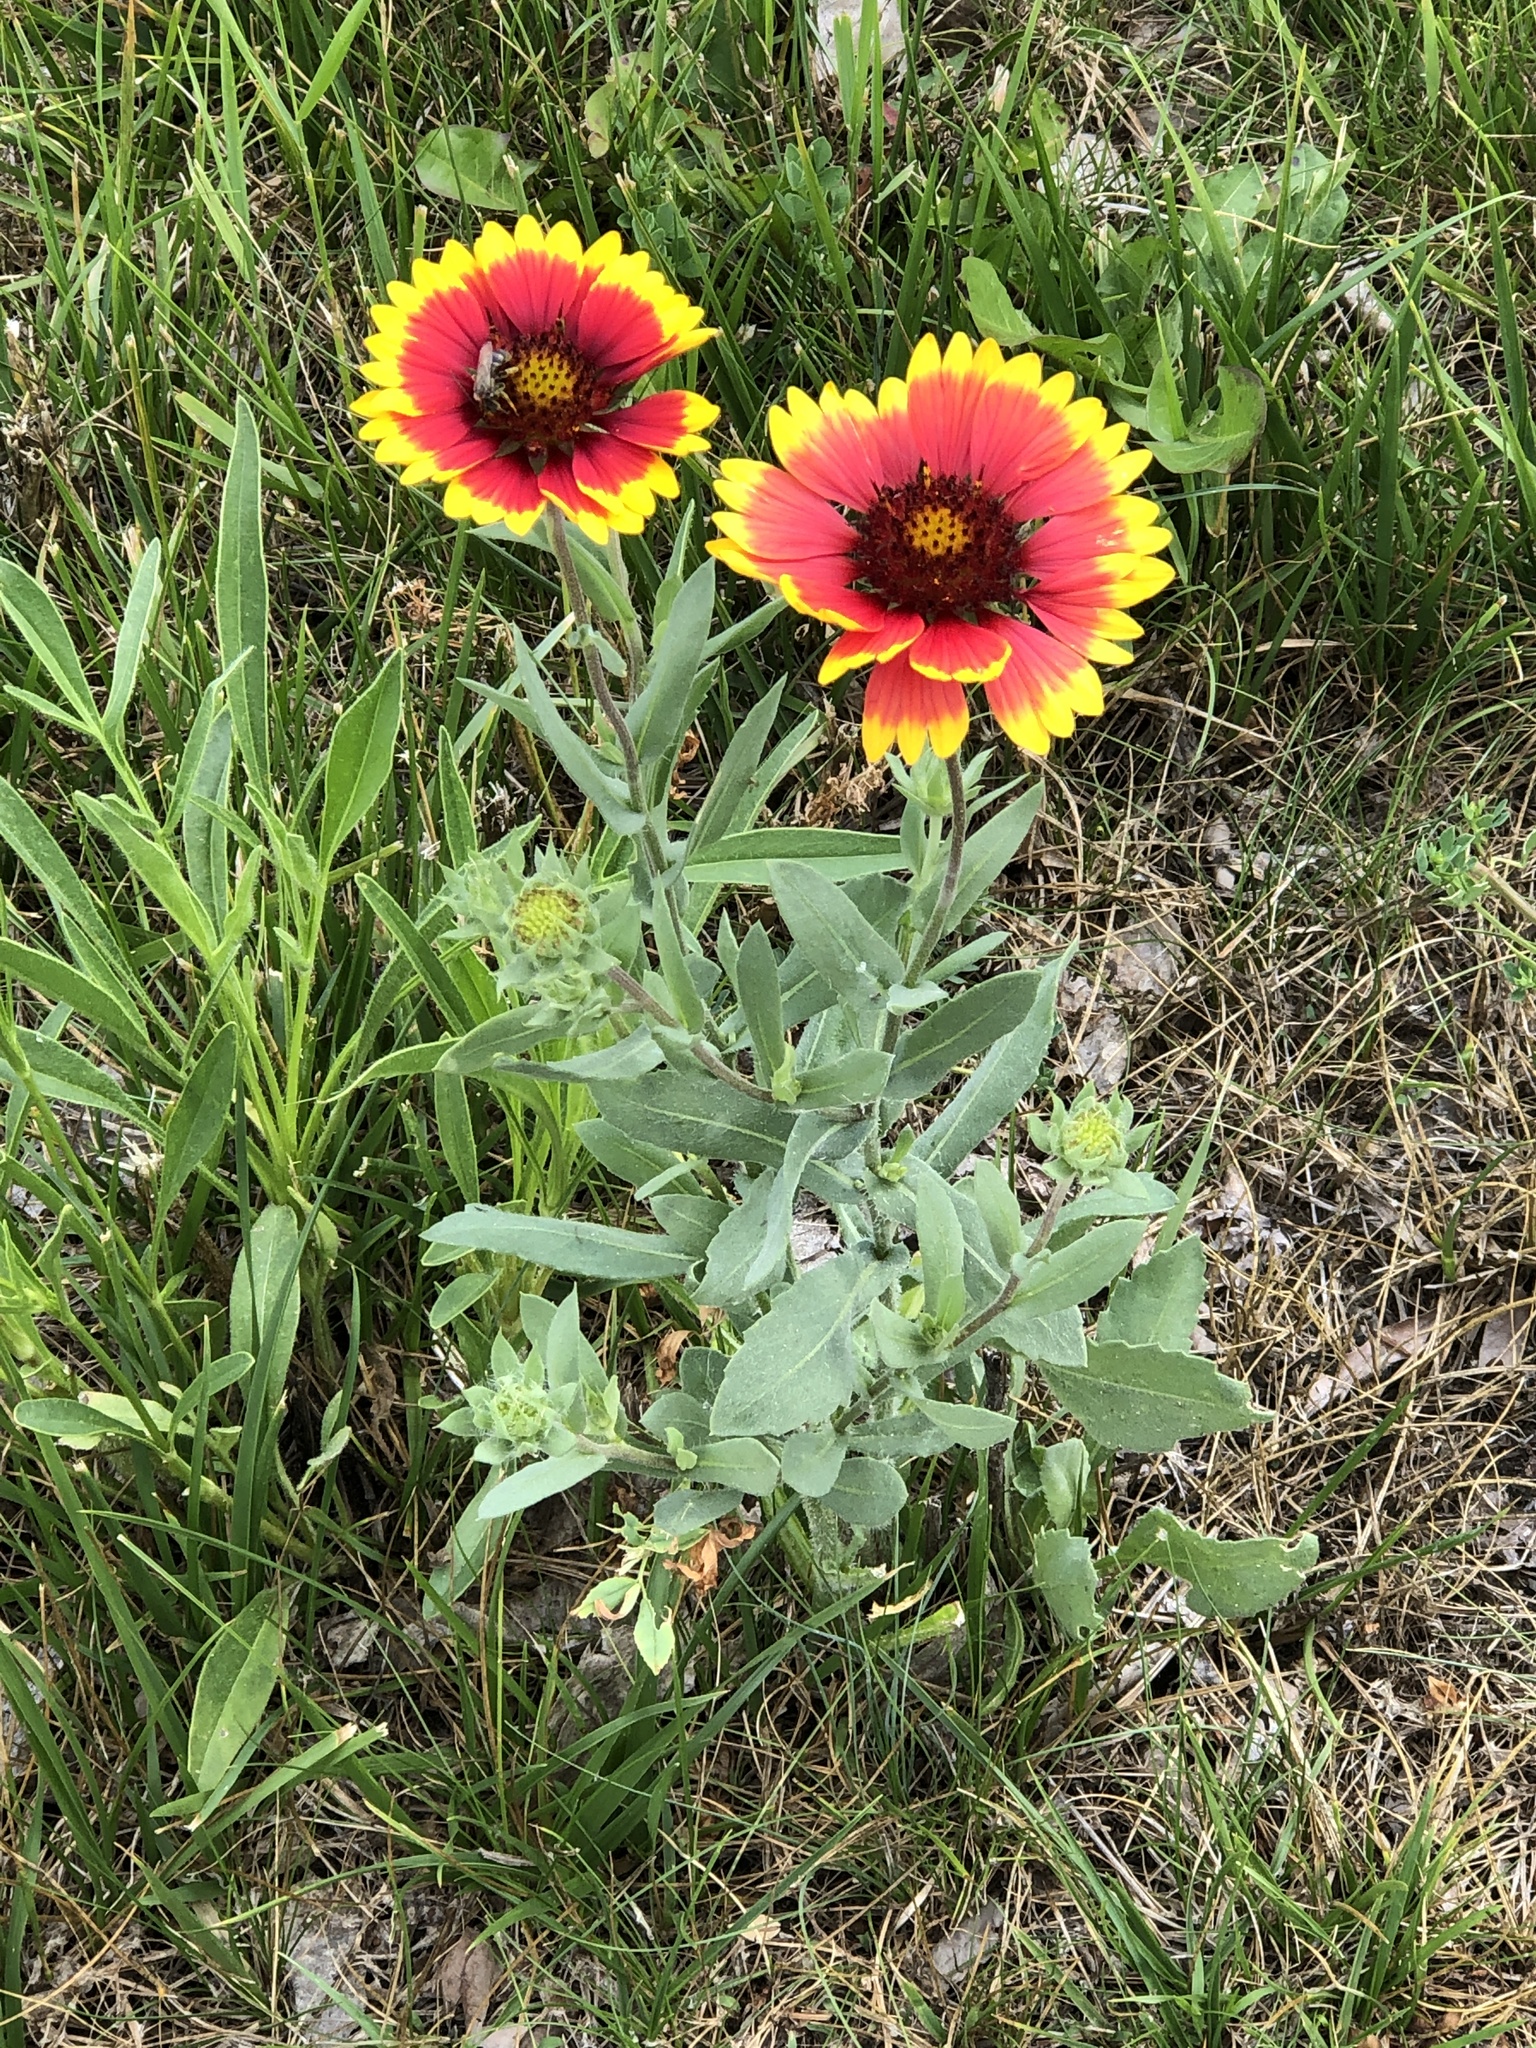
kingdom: Plantae
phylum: Tracheophyta
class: Magnoliopsida
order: Asterales
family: Asteraceae
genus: Gaillardia
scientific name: Gaillardia pulchella
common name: Firewheel
